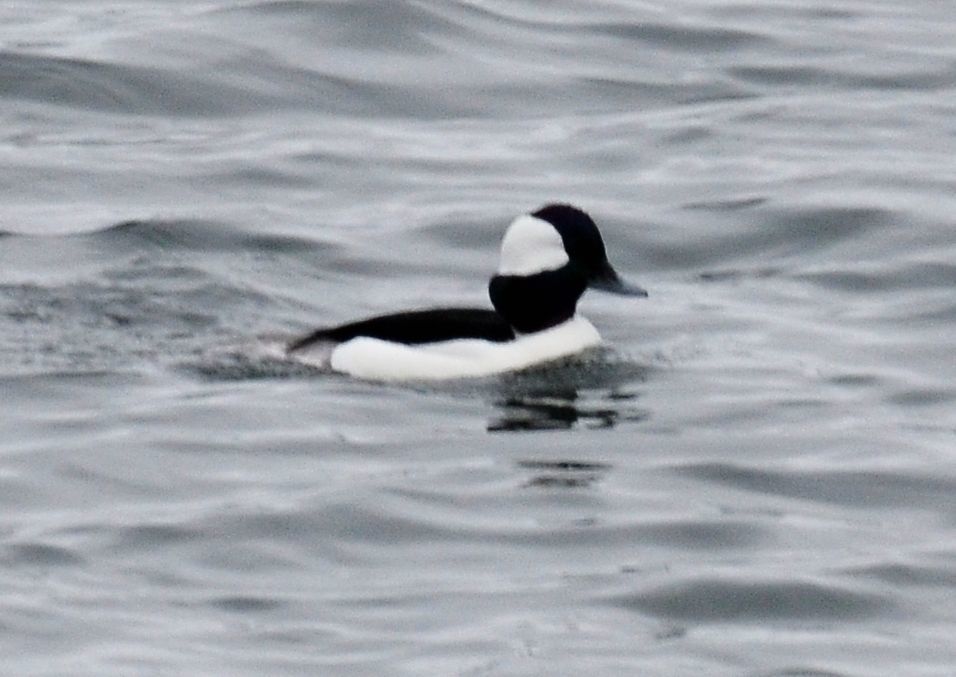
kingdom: Animalia
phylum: Chordata
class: Aves
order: Anseriformes
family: Anatidae
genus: Bucephala
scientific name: Bucephala albeola
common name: Bufflehead
